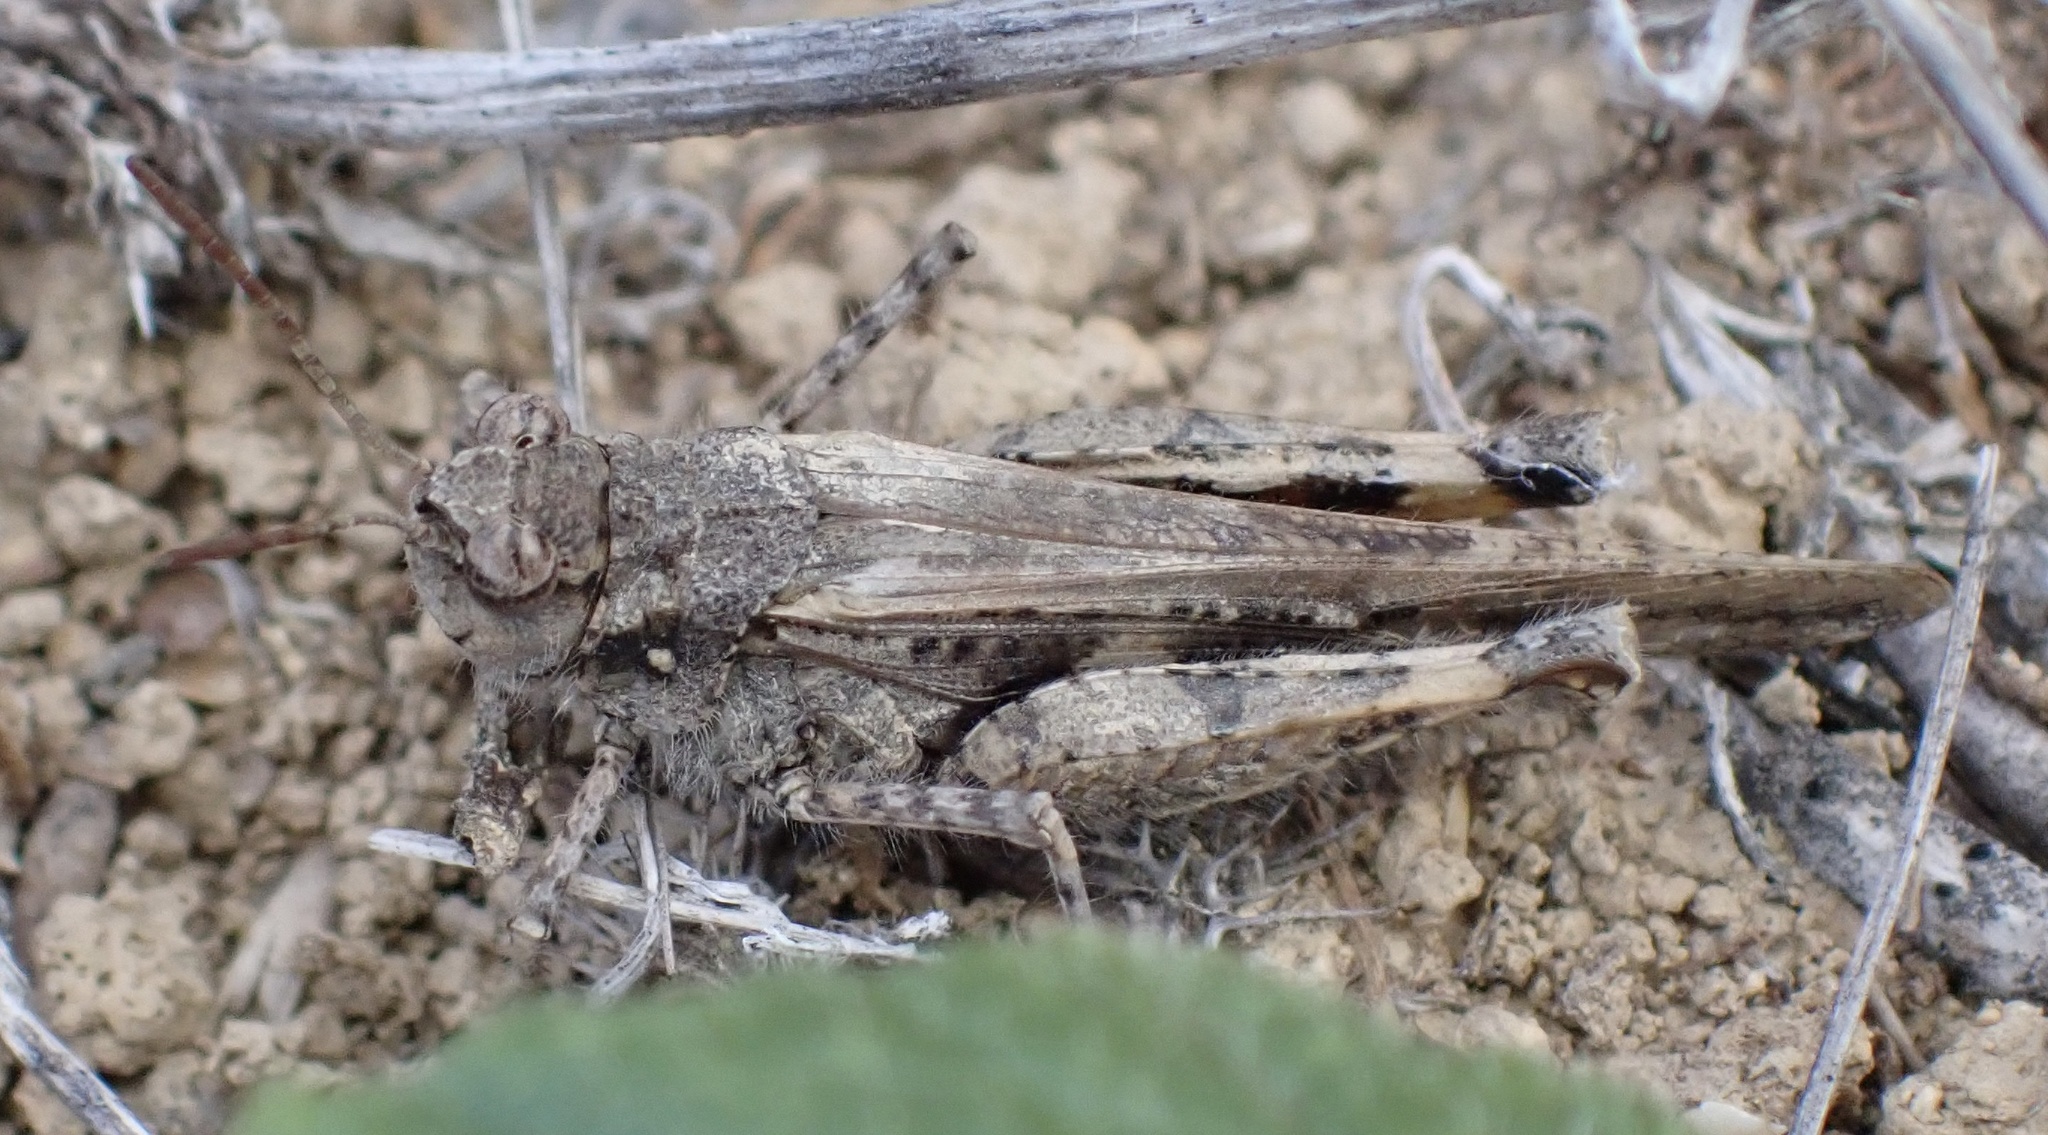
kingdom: Animalia
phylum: Arthropoda
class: Insecta
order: Orthoptera
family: Acrididae
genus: Acrotylus
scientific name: Acrotylus insubricus
